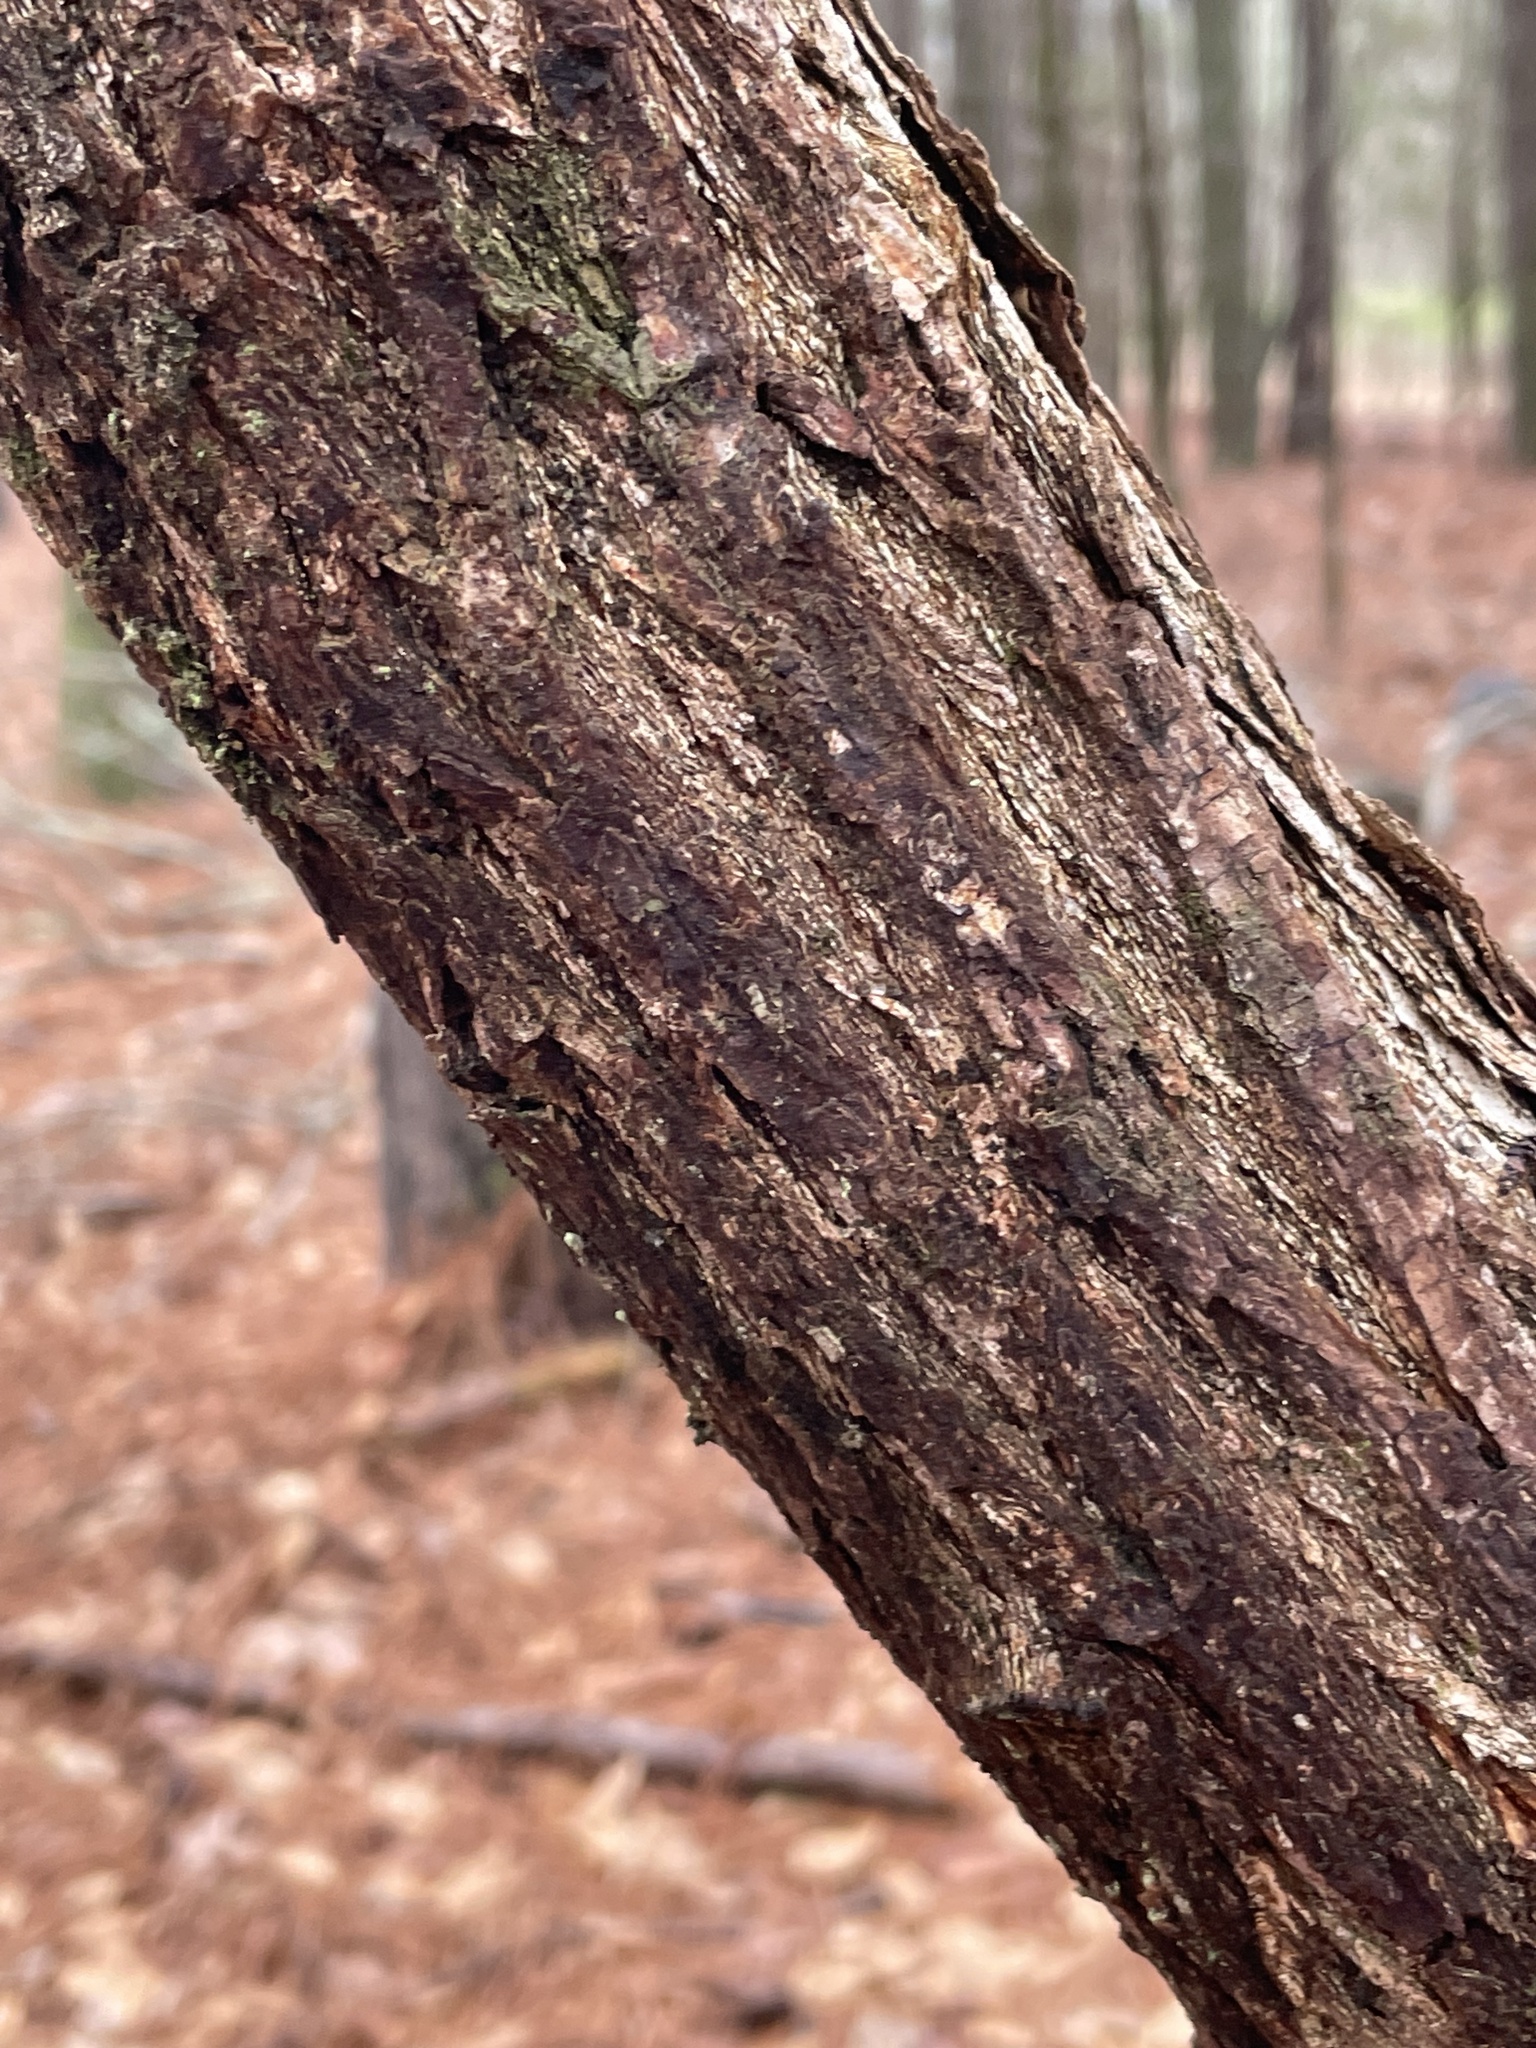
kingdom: Plantae
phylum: Tracheophyta
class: Magnoliopsida
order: Laurales
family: Lauraceae
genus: Sassafras
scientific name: Sassafras albidum
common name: Sassafras
